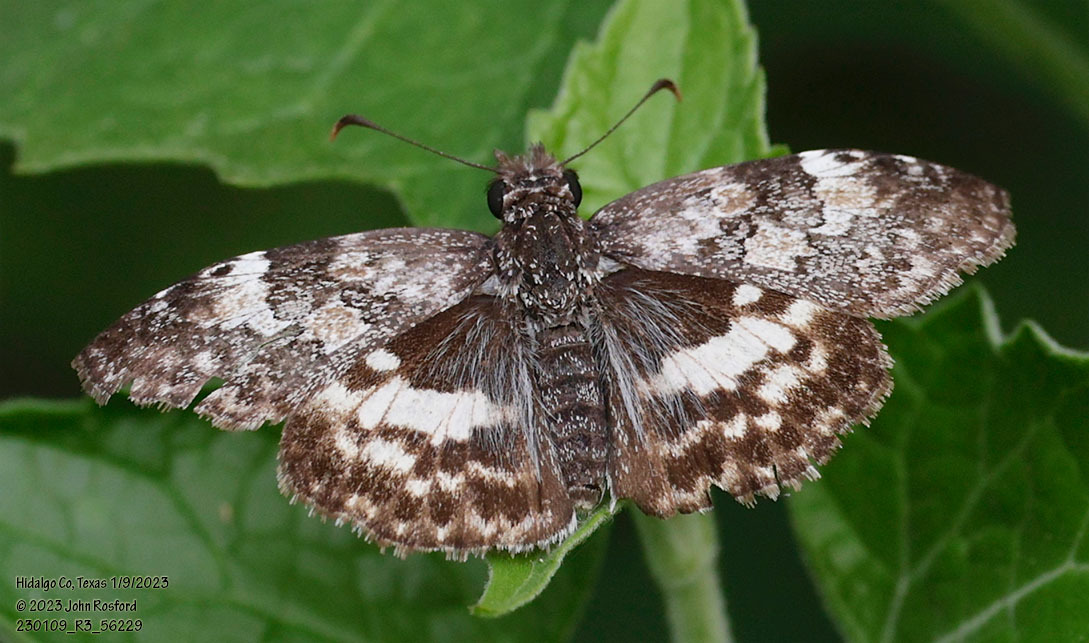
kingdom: Animalia
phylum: Arthropoda
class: Insecta
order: Lepidoptera
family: Hesperiidae
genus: Chiothion
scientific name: Chiothion georgina
